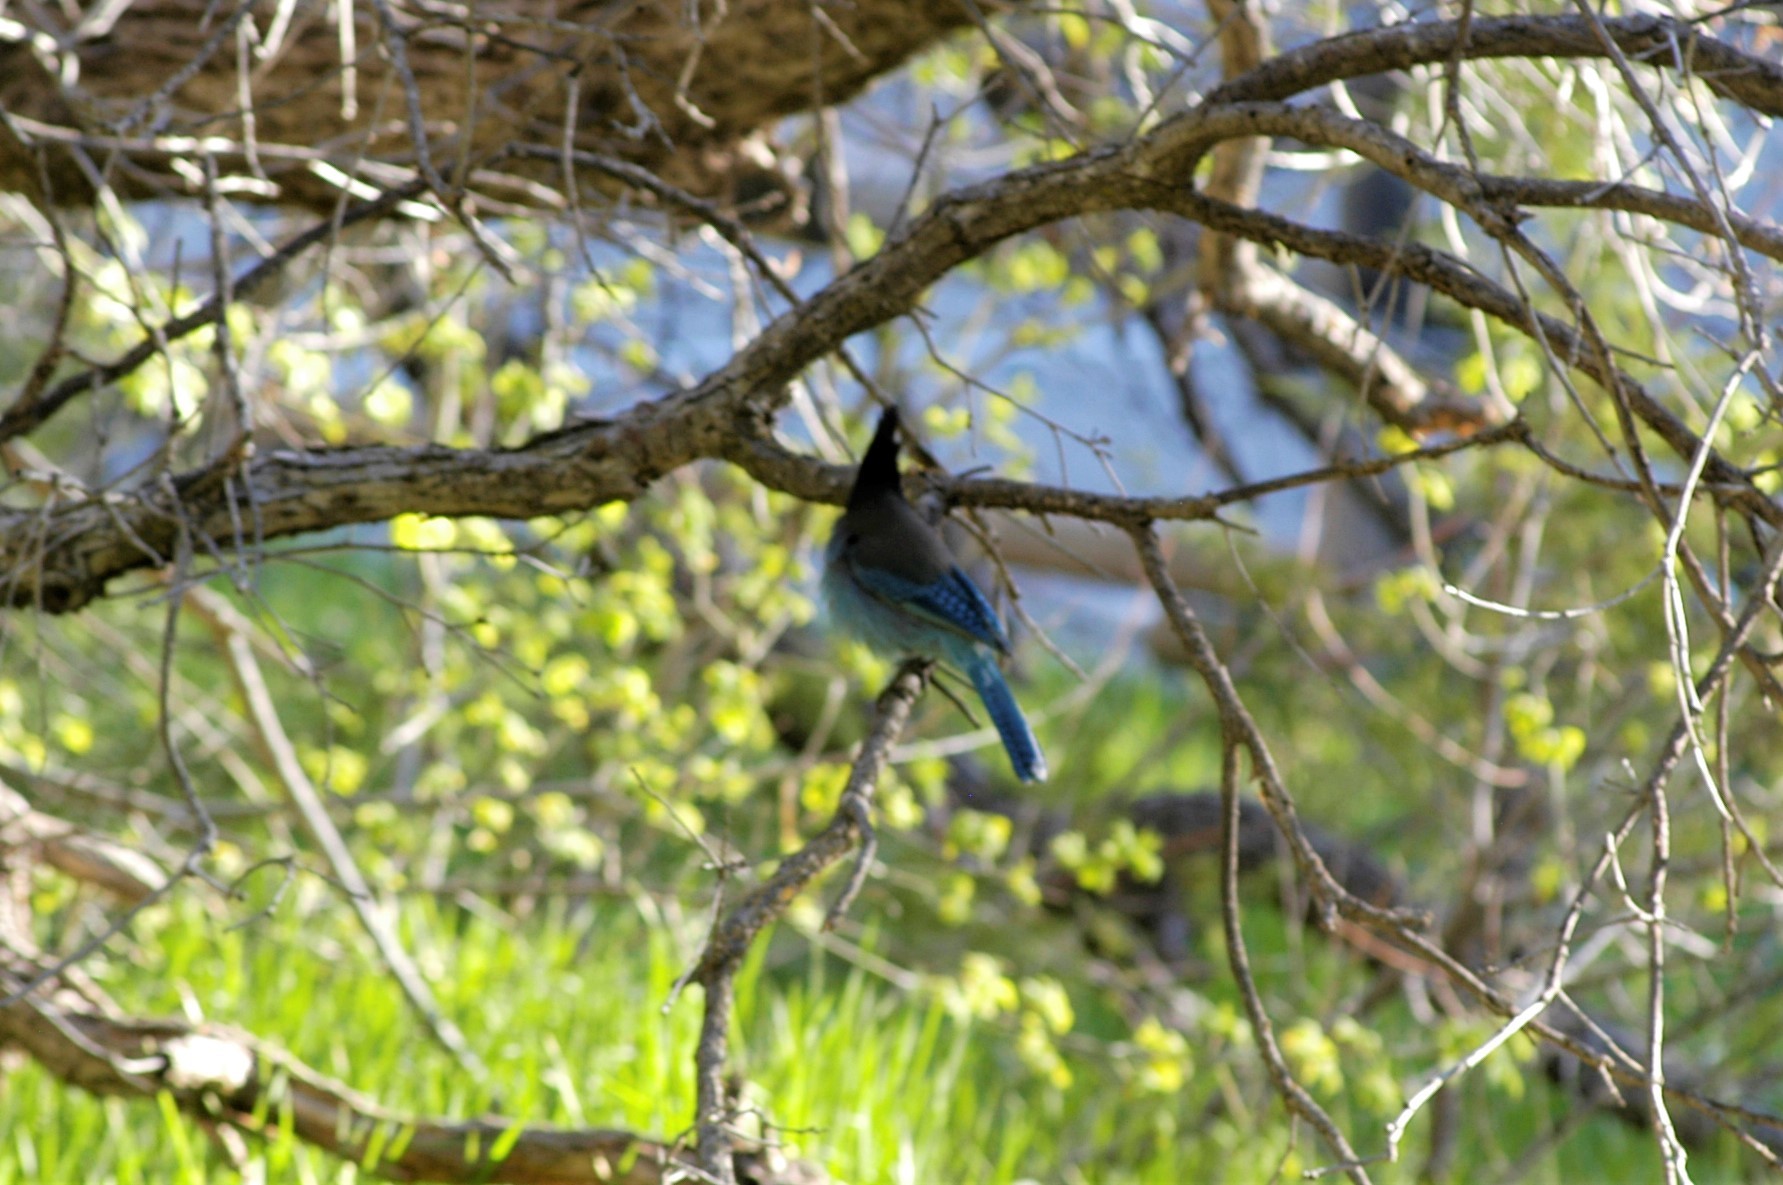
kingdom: Animalia
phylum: Chordata
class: Aves
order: Passeriformes
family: Corvidae
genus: Cyanocitta
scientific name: Cyanocitta stelleri
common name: Steller's jay
